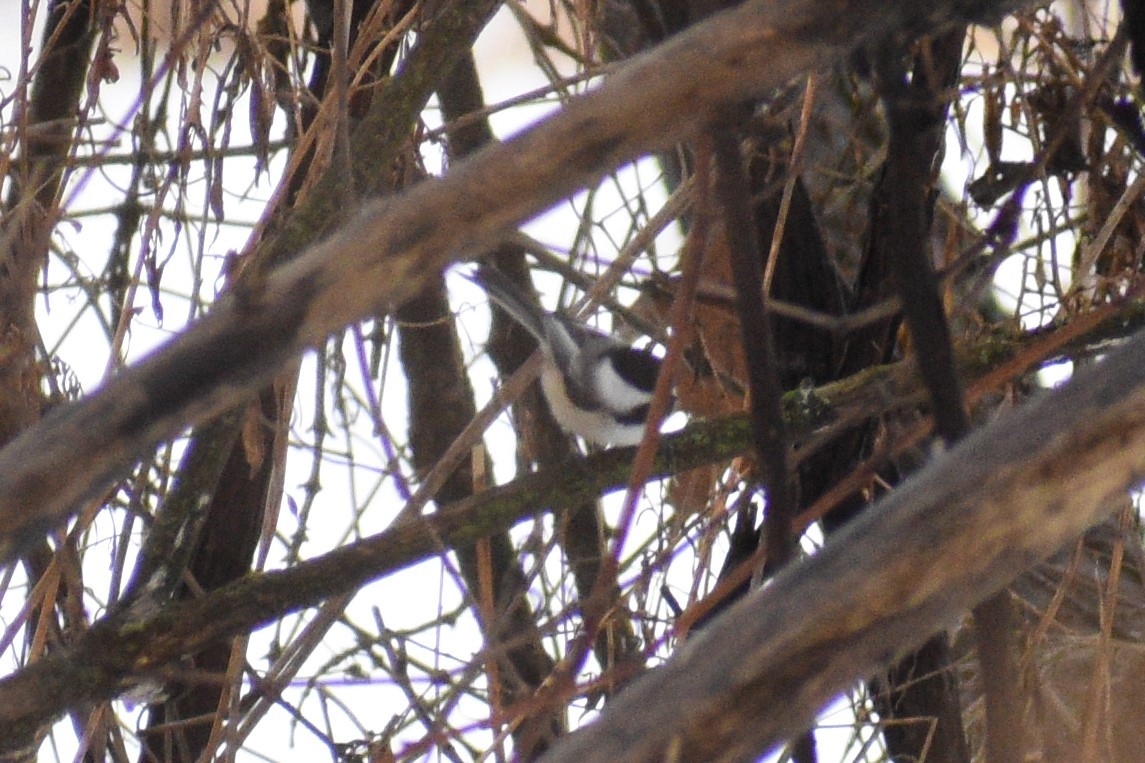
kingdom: Animalia
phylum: Chordata
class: Aves
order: Passeriformes
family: Paridae
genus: Poecile
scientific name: Poecile atricapillus
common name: Black-capped chickadee
